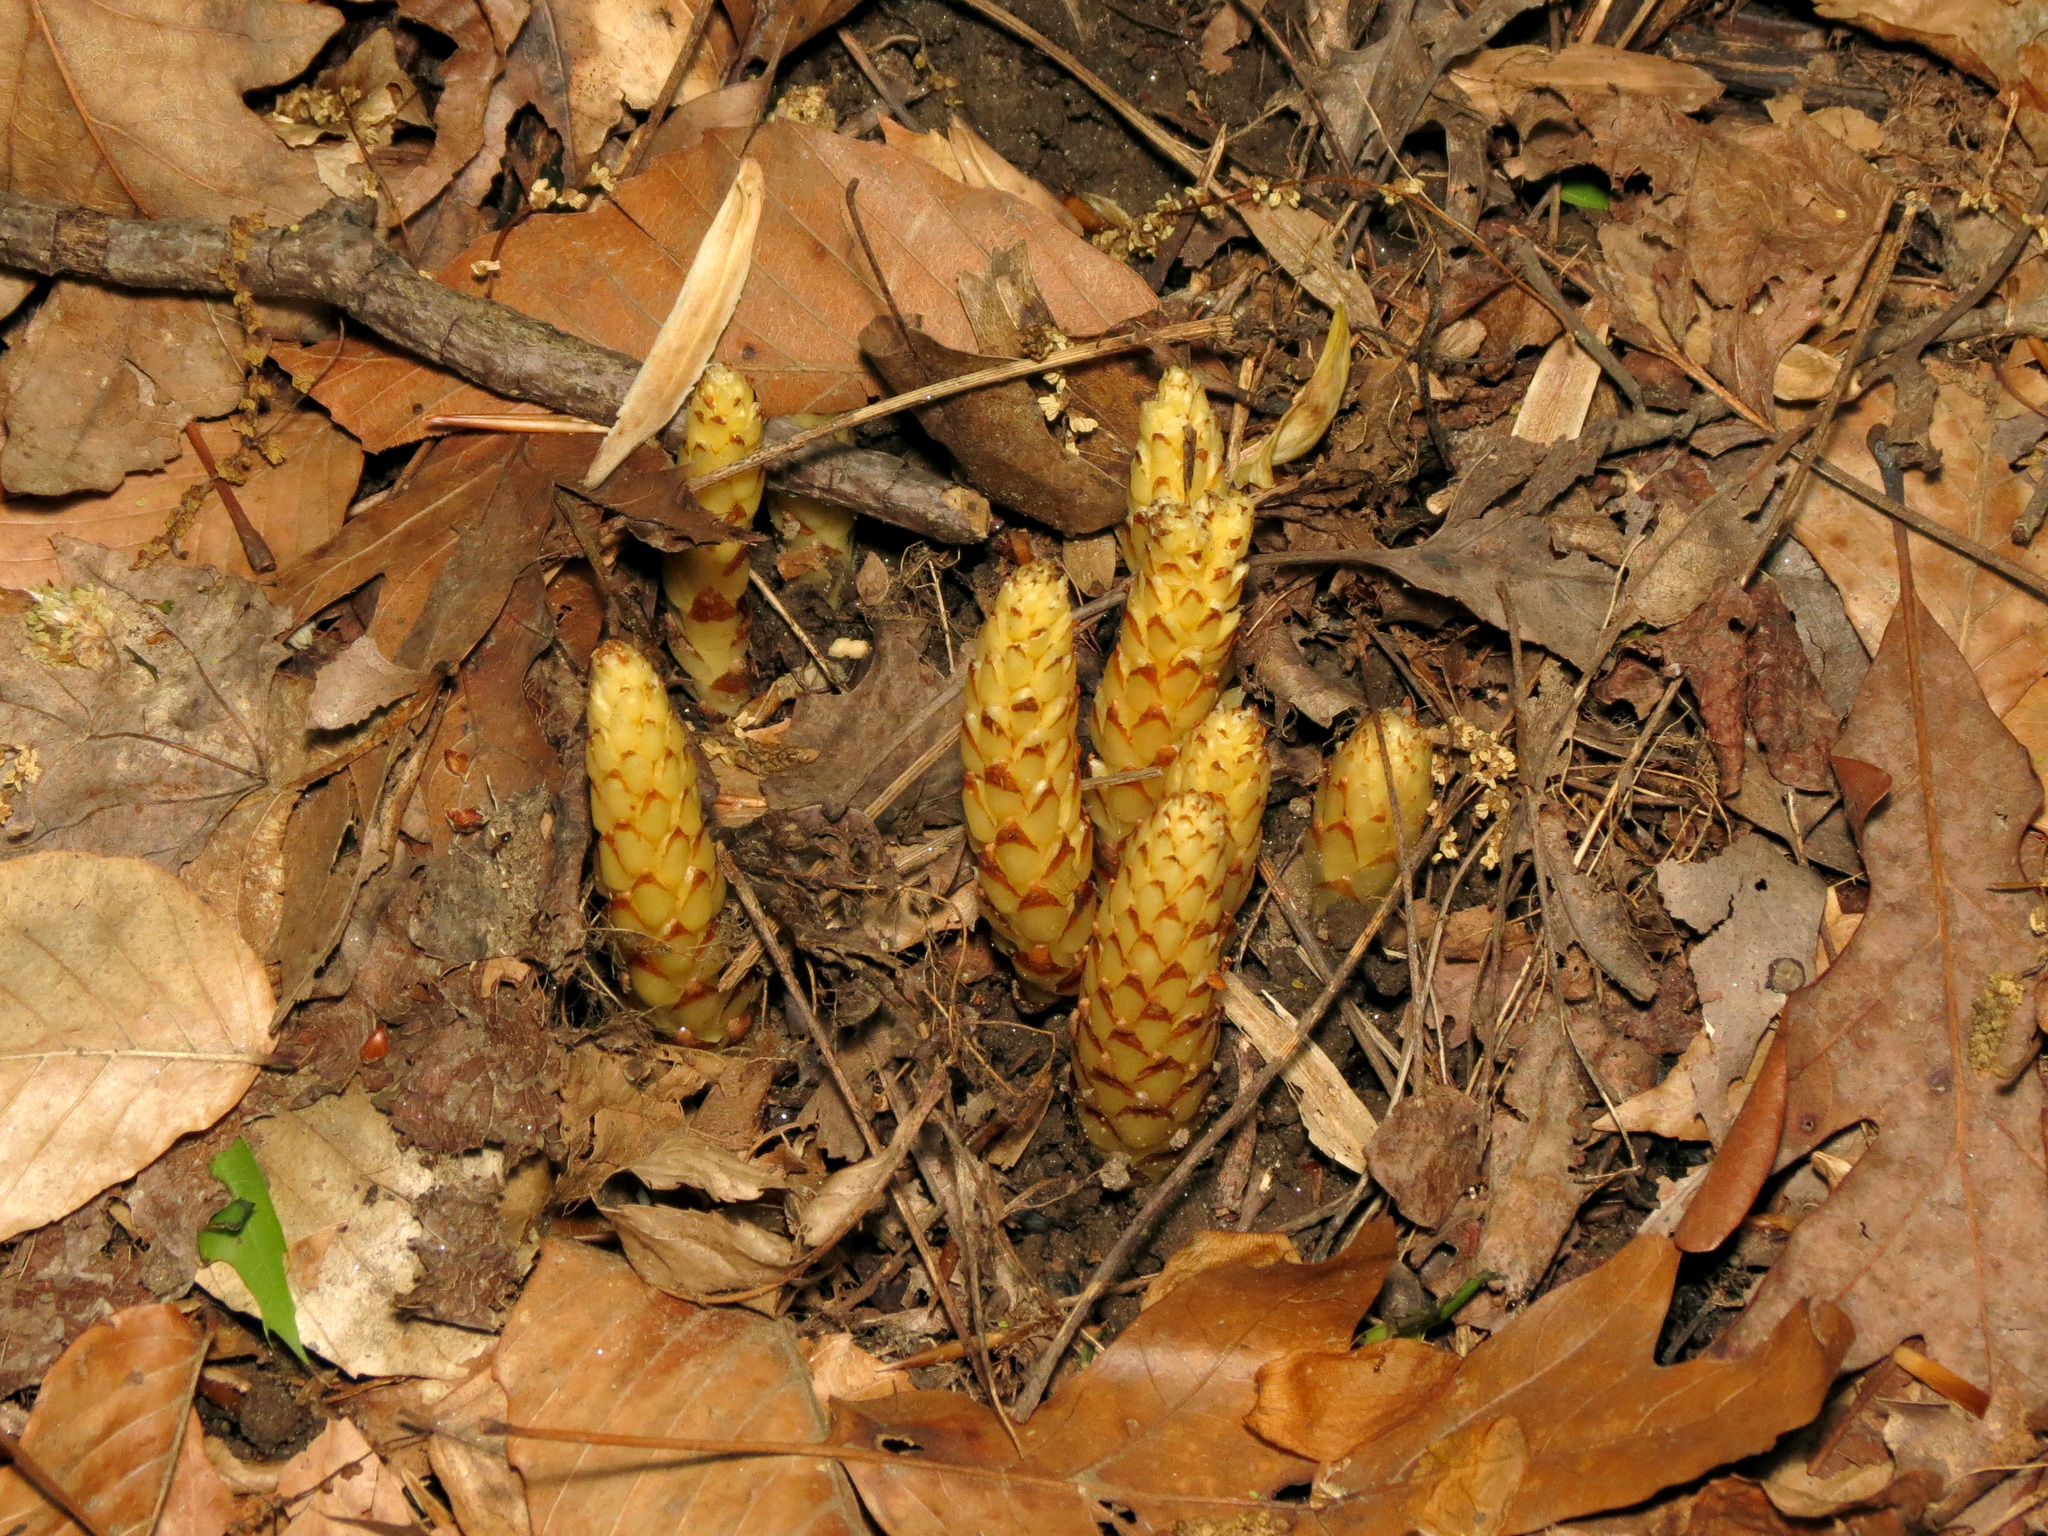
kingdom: Plantae
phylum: Tracheophyta
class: Magnoliopsida
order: Lamiales
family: Orobanchaceae
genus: Conopholis
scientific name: Conopholis americana
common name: American cancer-root
